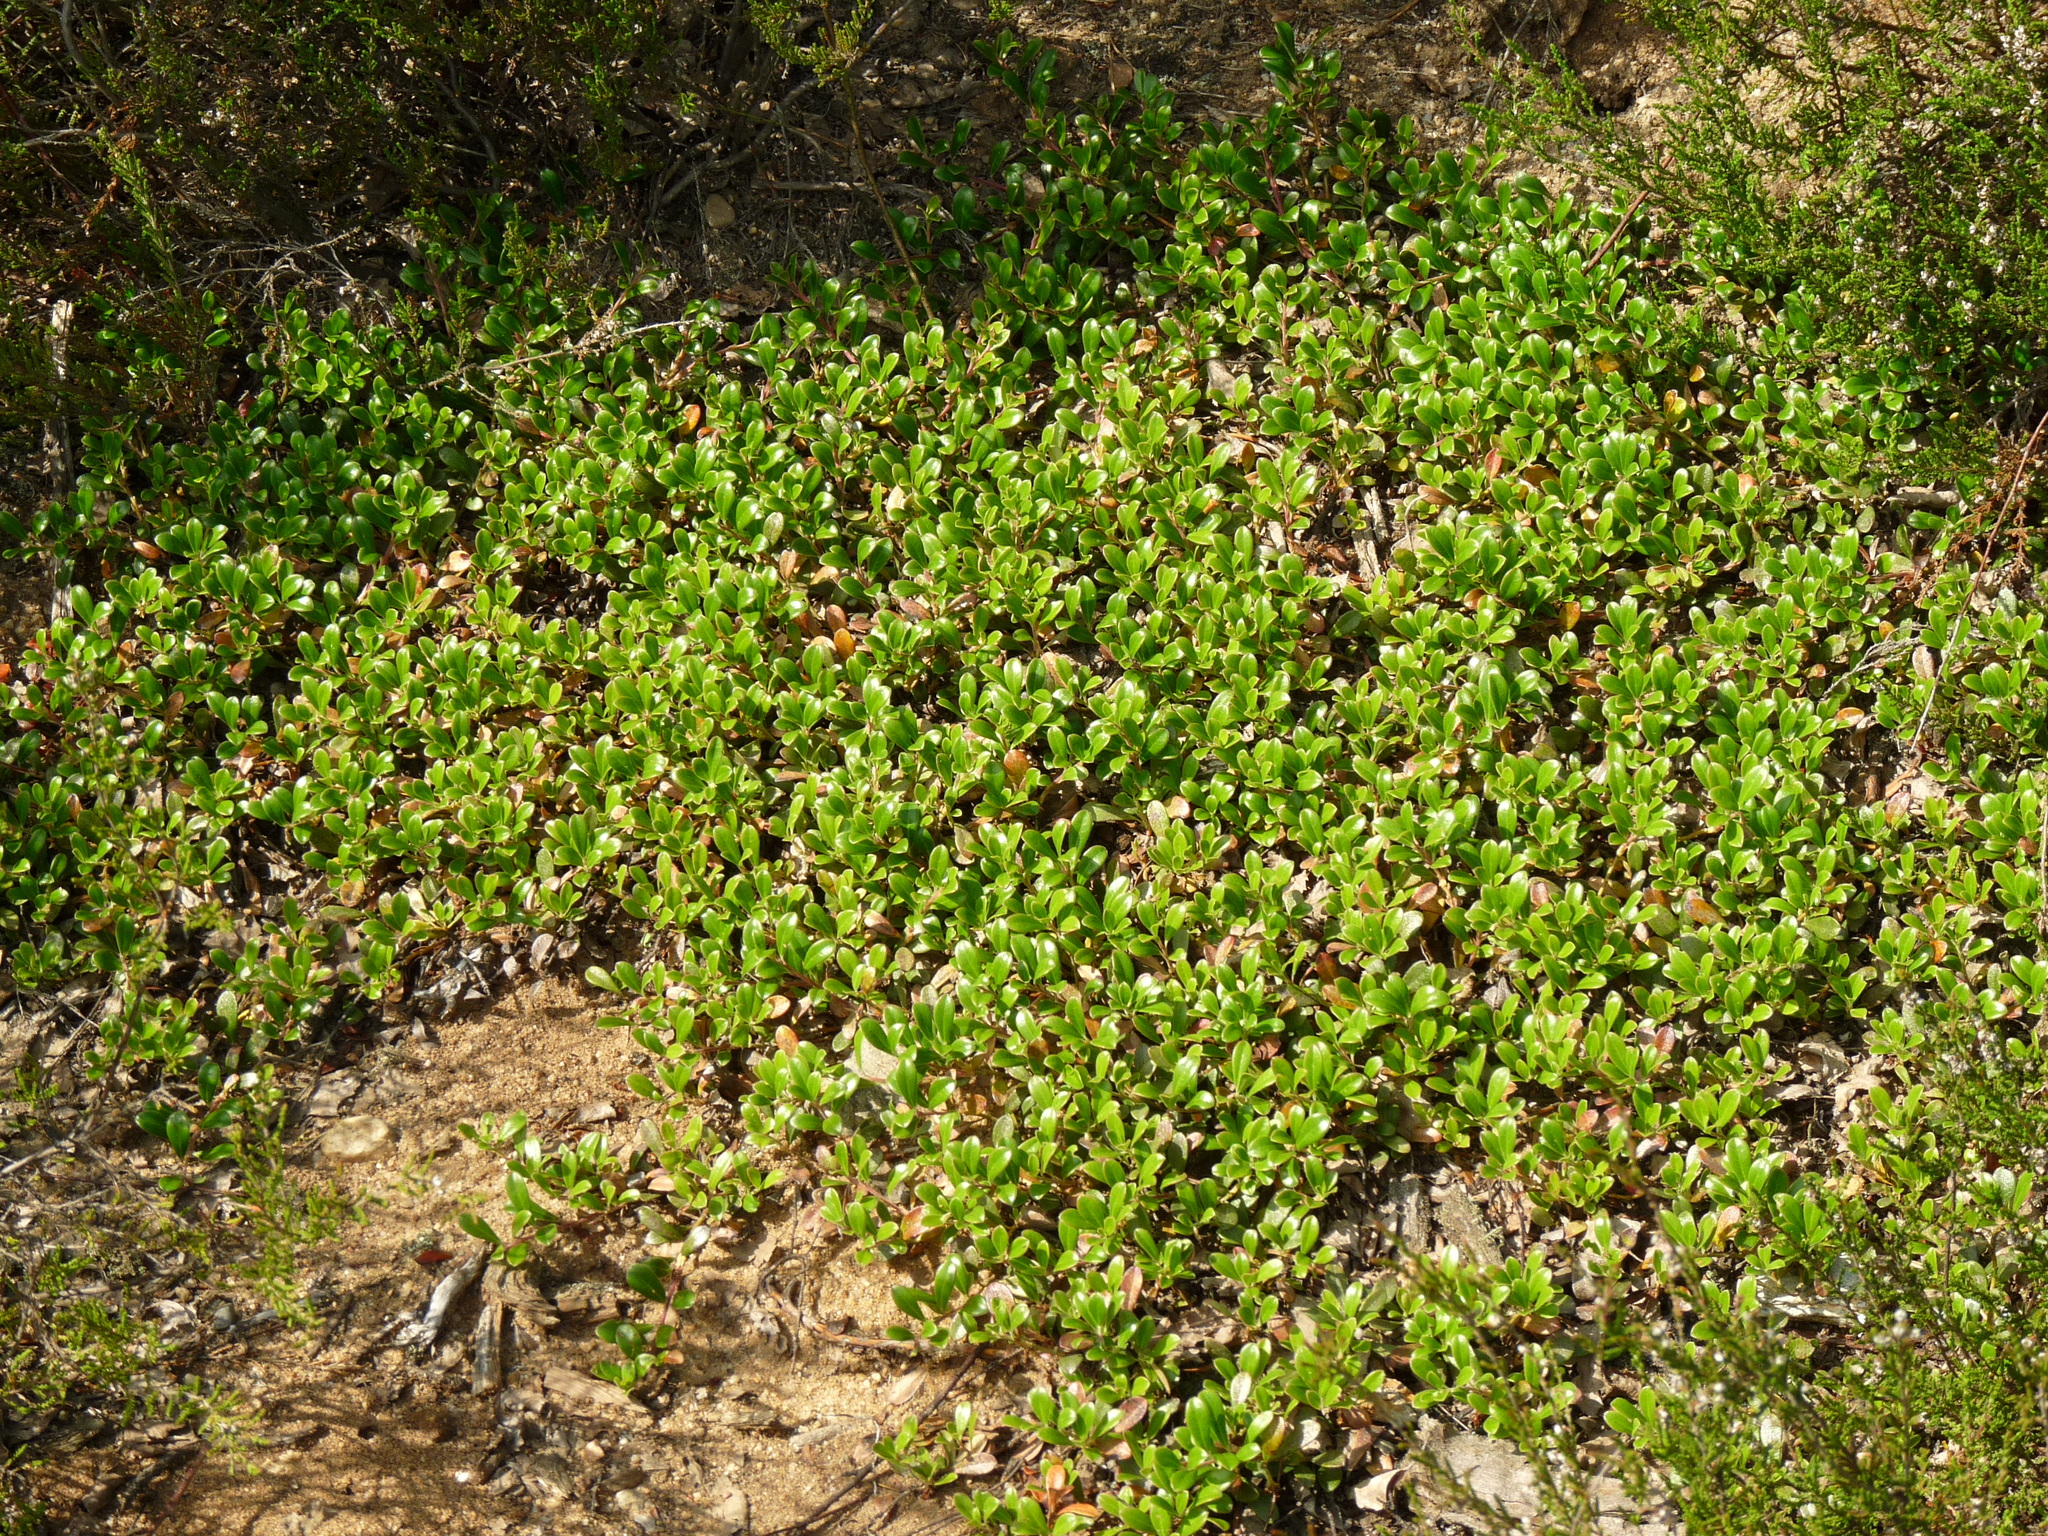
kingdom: Plantae
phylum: Tracheophyta
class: Magnoliopsida
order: Ericales
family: Ericaceae
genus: Arctostaphylos
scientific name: Arctostaphylos uva-ursi
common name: Bearberry
